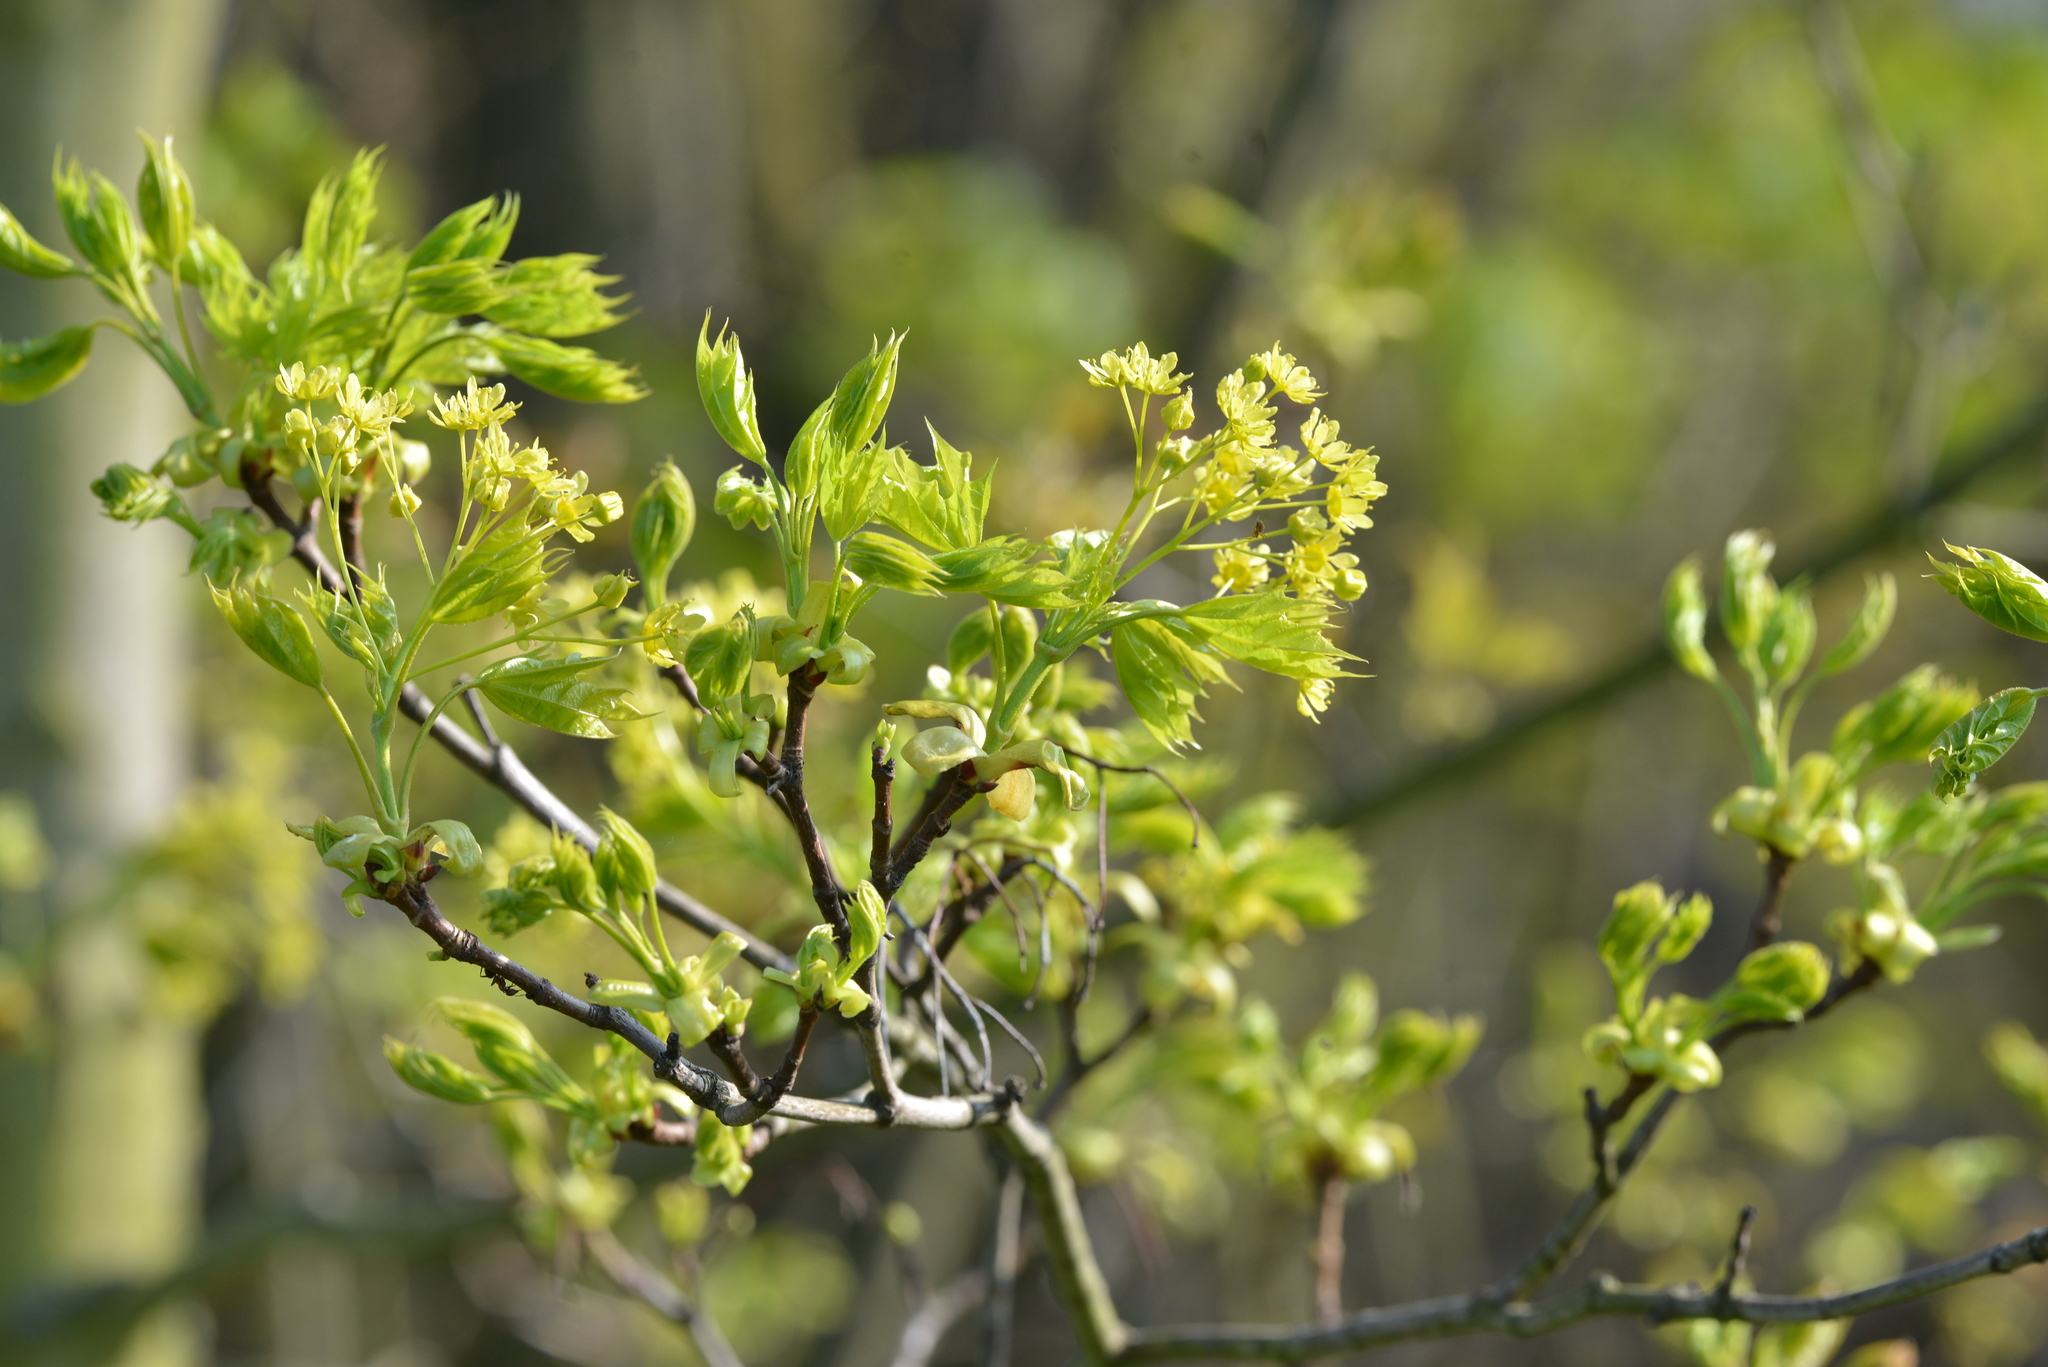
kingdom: Plantae
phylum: Tracheophyta
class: Magnoliopsida
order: Sapindales
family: Sapindaceae
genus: Acer
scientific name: Acer platanoides
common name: Norway maple
